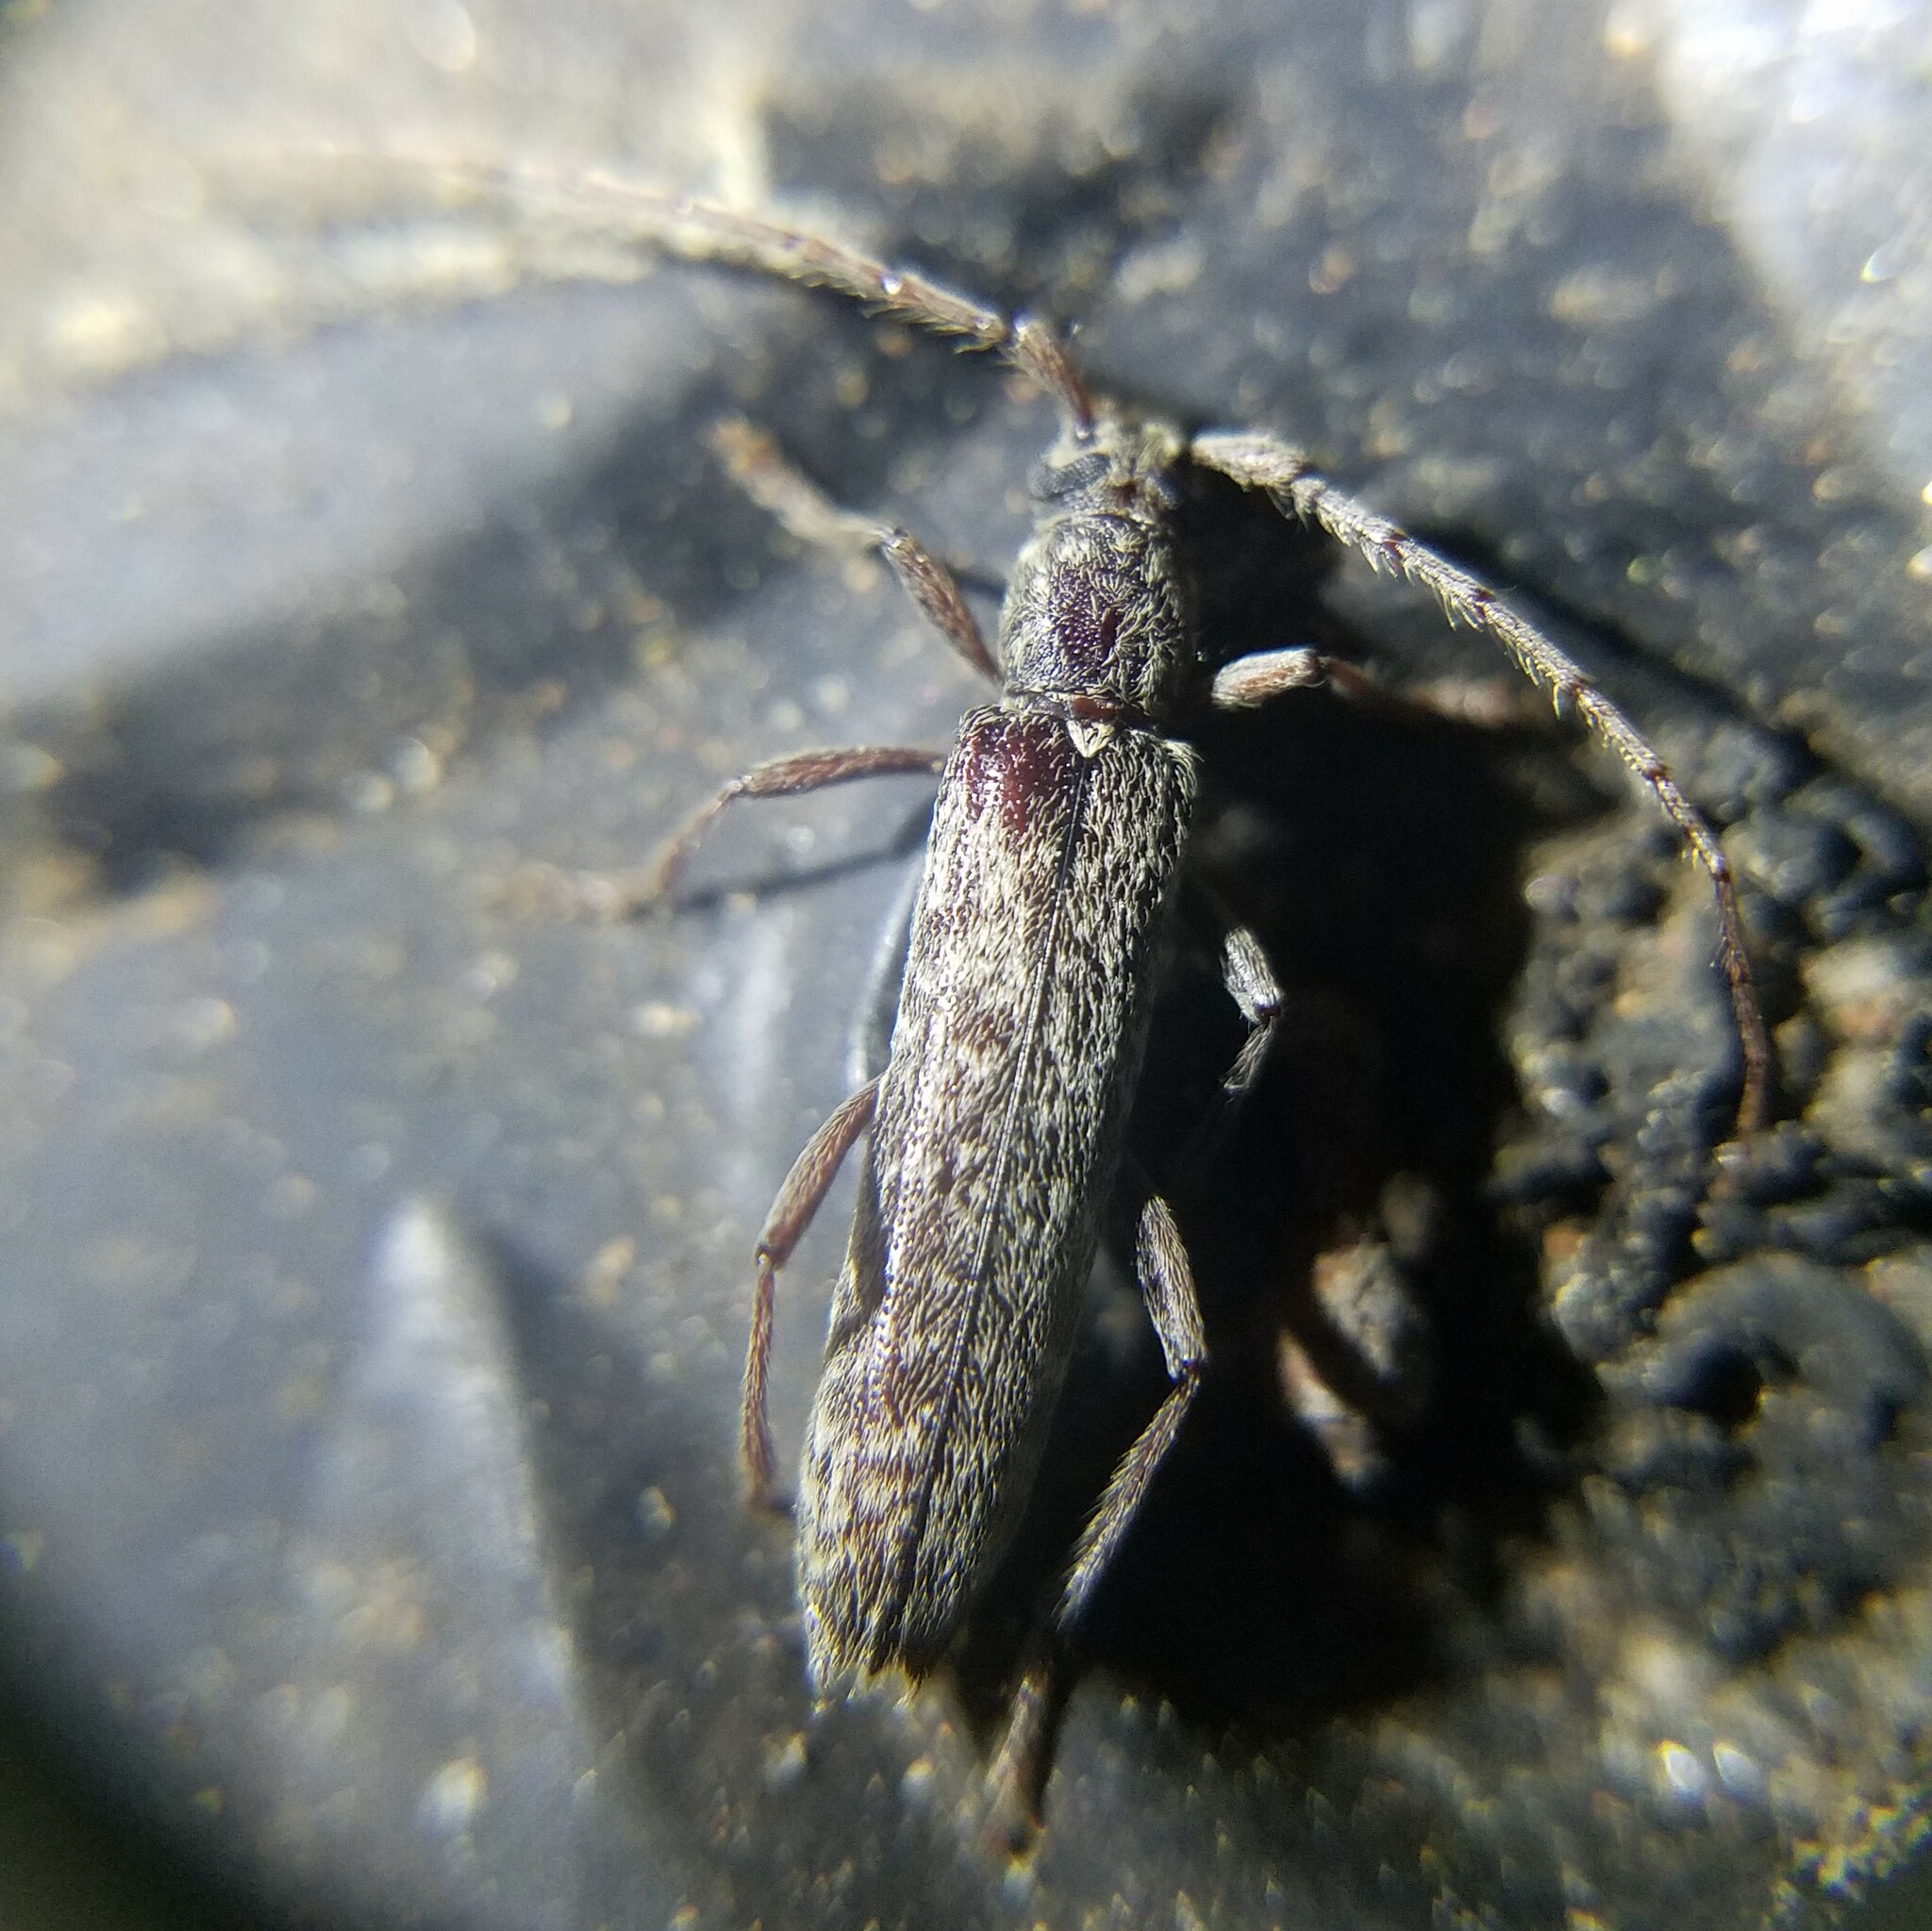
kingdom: Animalia
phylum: Arthropoda
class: Insecta
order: Coleoptera
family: Cerambycidae
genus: Anelaphus
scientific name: Anelaphus villosus
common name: Twig pruner
